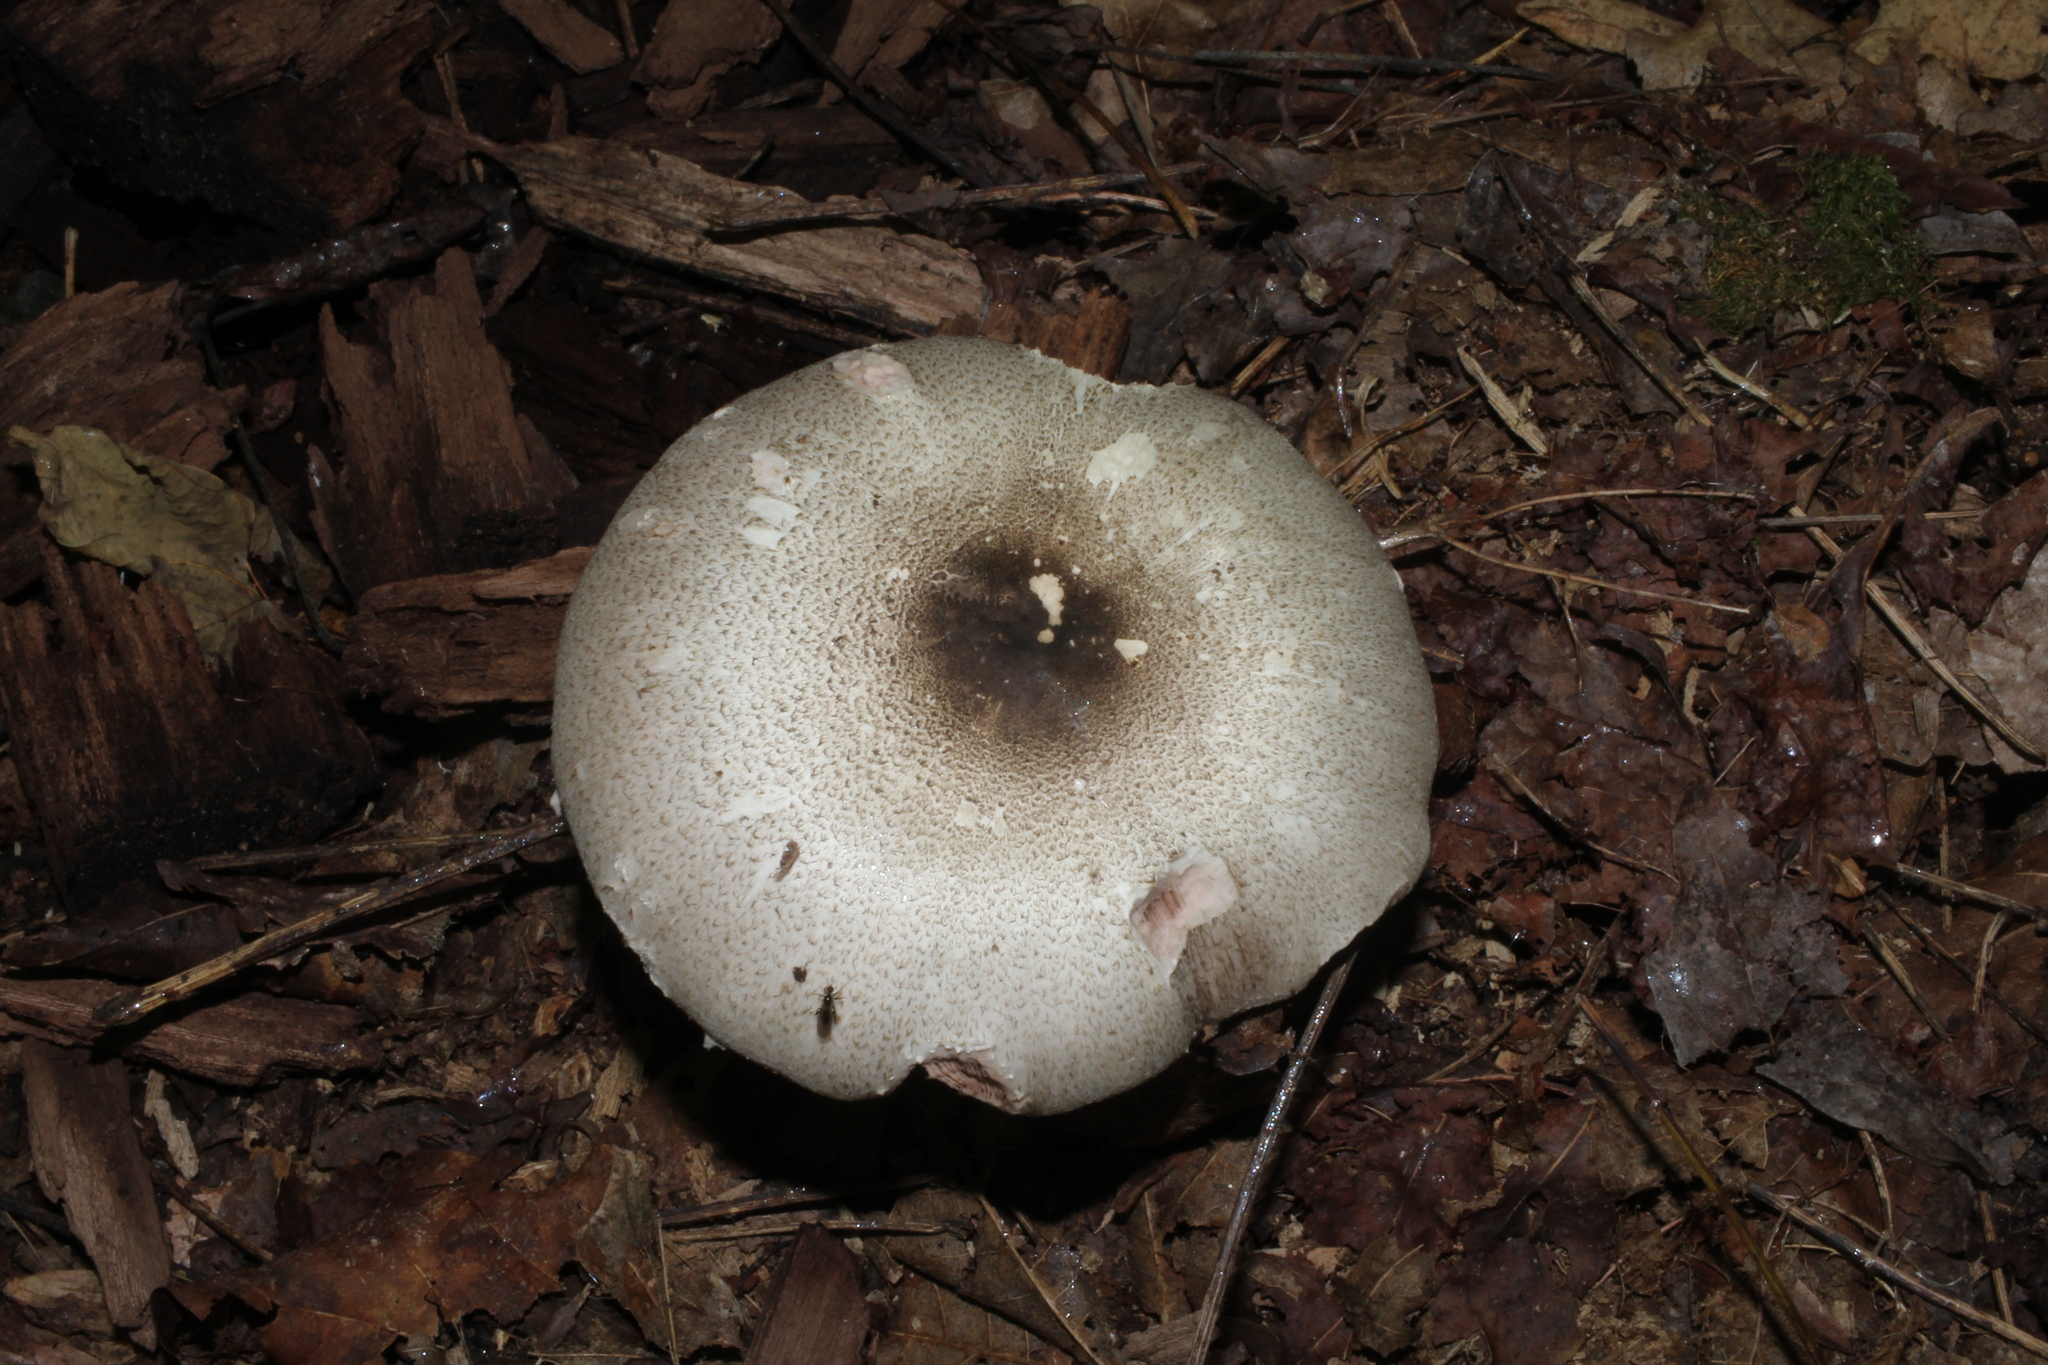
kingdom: Fungi
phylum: Basidiomycota
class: Agaricomycetes
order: Agaricales
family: Agaricaceae
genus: Agaricus
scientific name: Agaricus placomyces
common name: Inky mushroom
